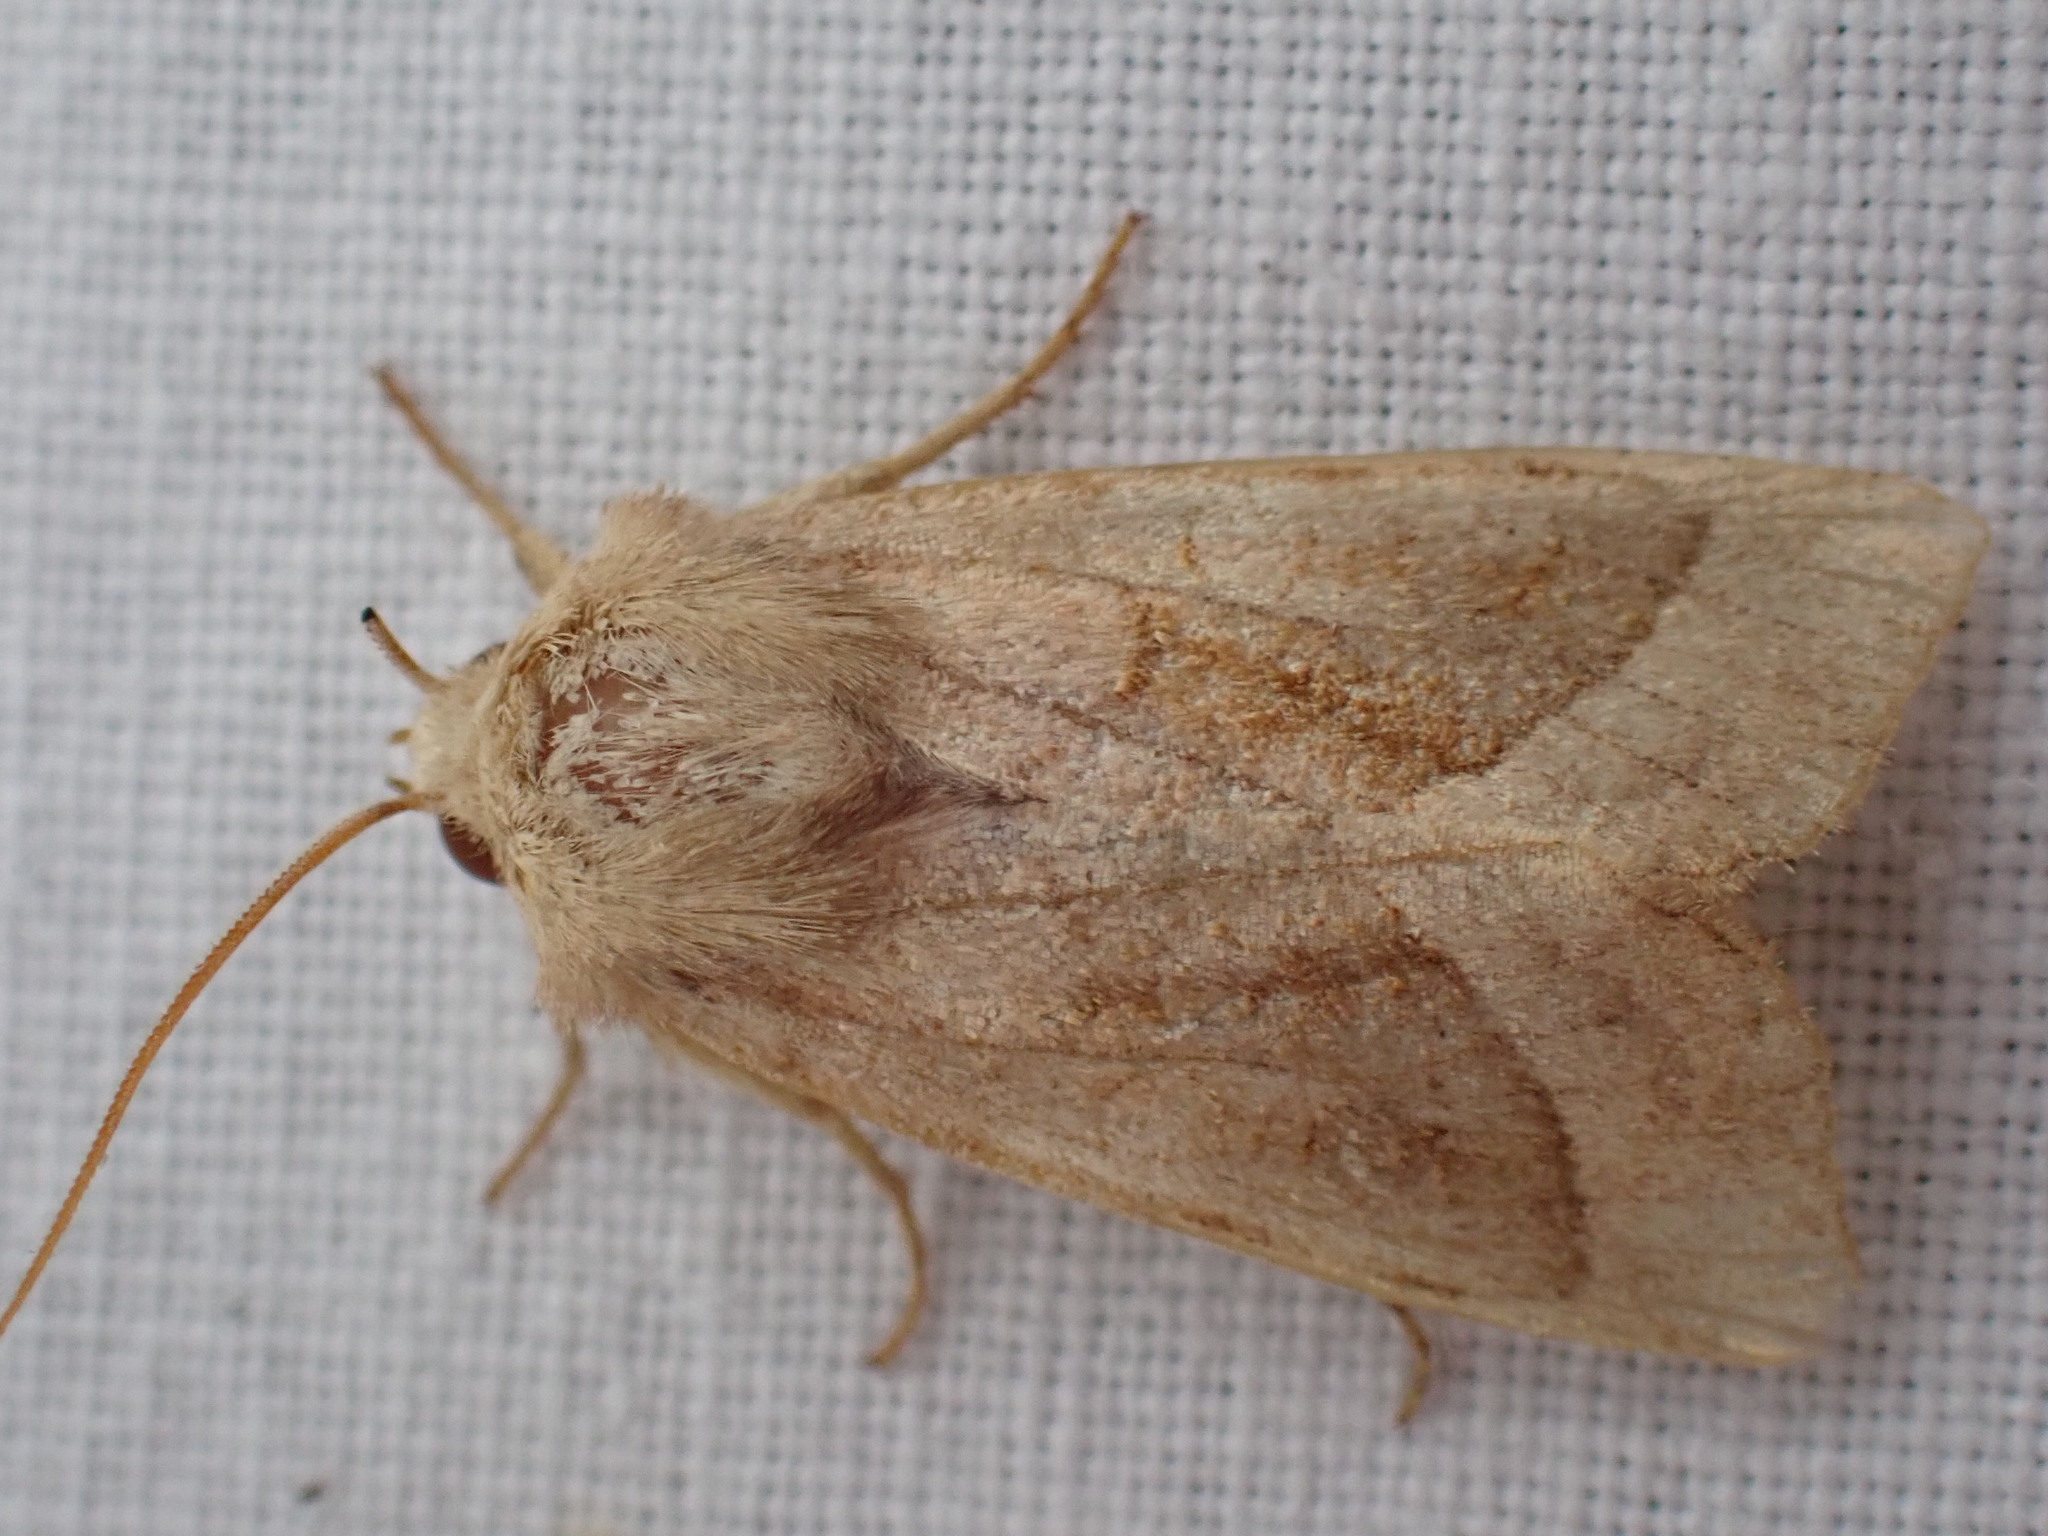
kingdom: Animalia
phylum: Arthropoda
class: Insecta
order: Lepidoptera
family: Noctuidae
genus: Hydraecia
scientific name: Hydraecia micacea
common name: Rosy rustic
